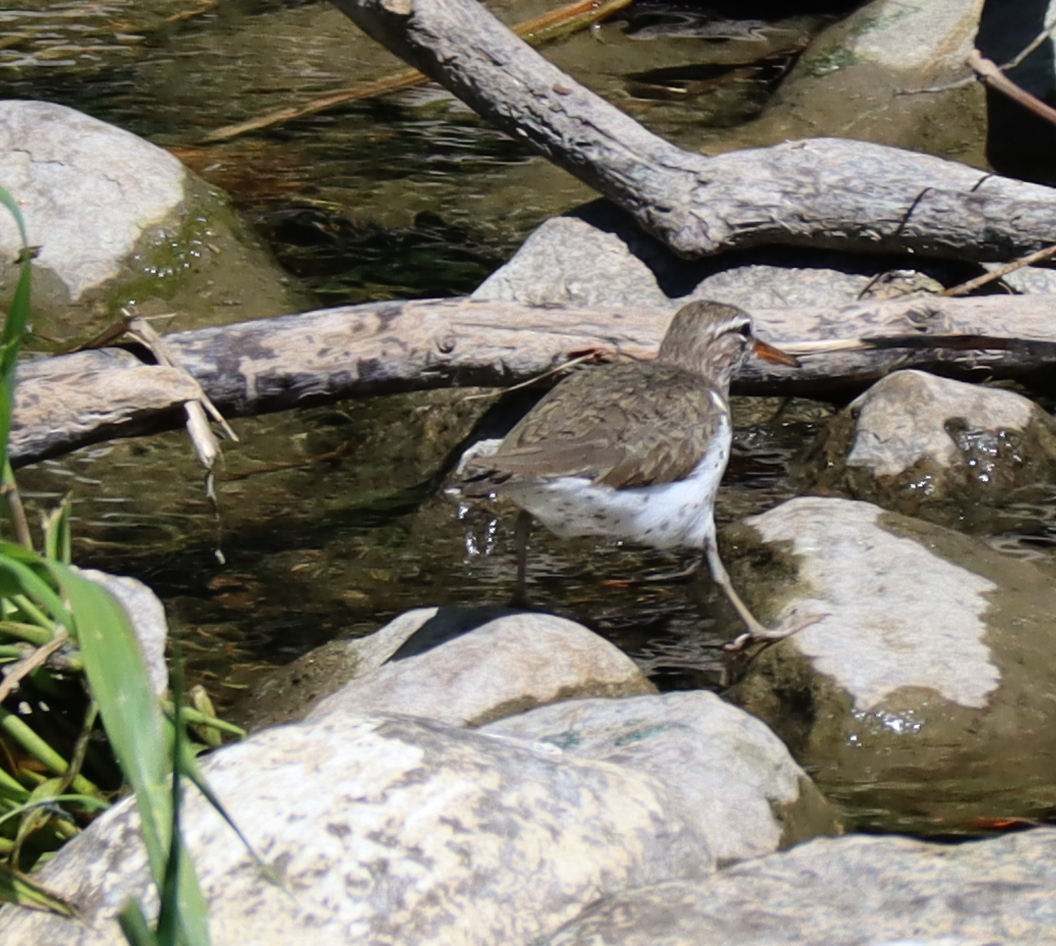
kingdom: Animalia
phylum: Chordata
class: Aves
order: Charadriiformes
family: Scolopacidae
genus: Actitis
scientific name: Actitis macularius
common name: Spotted sandpiper
